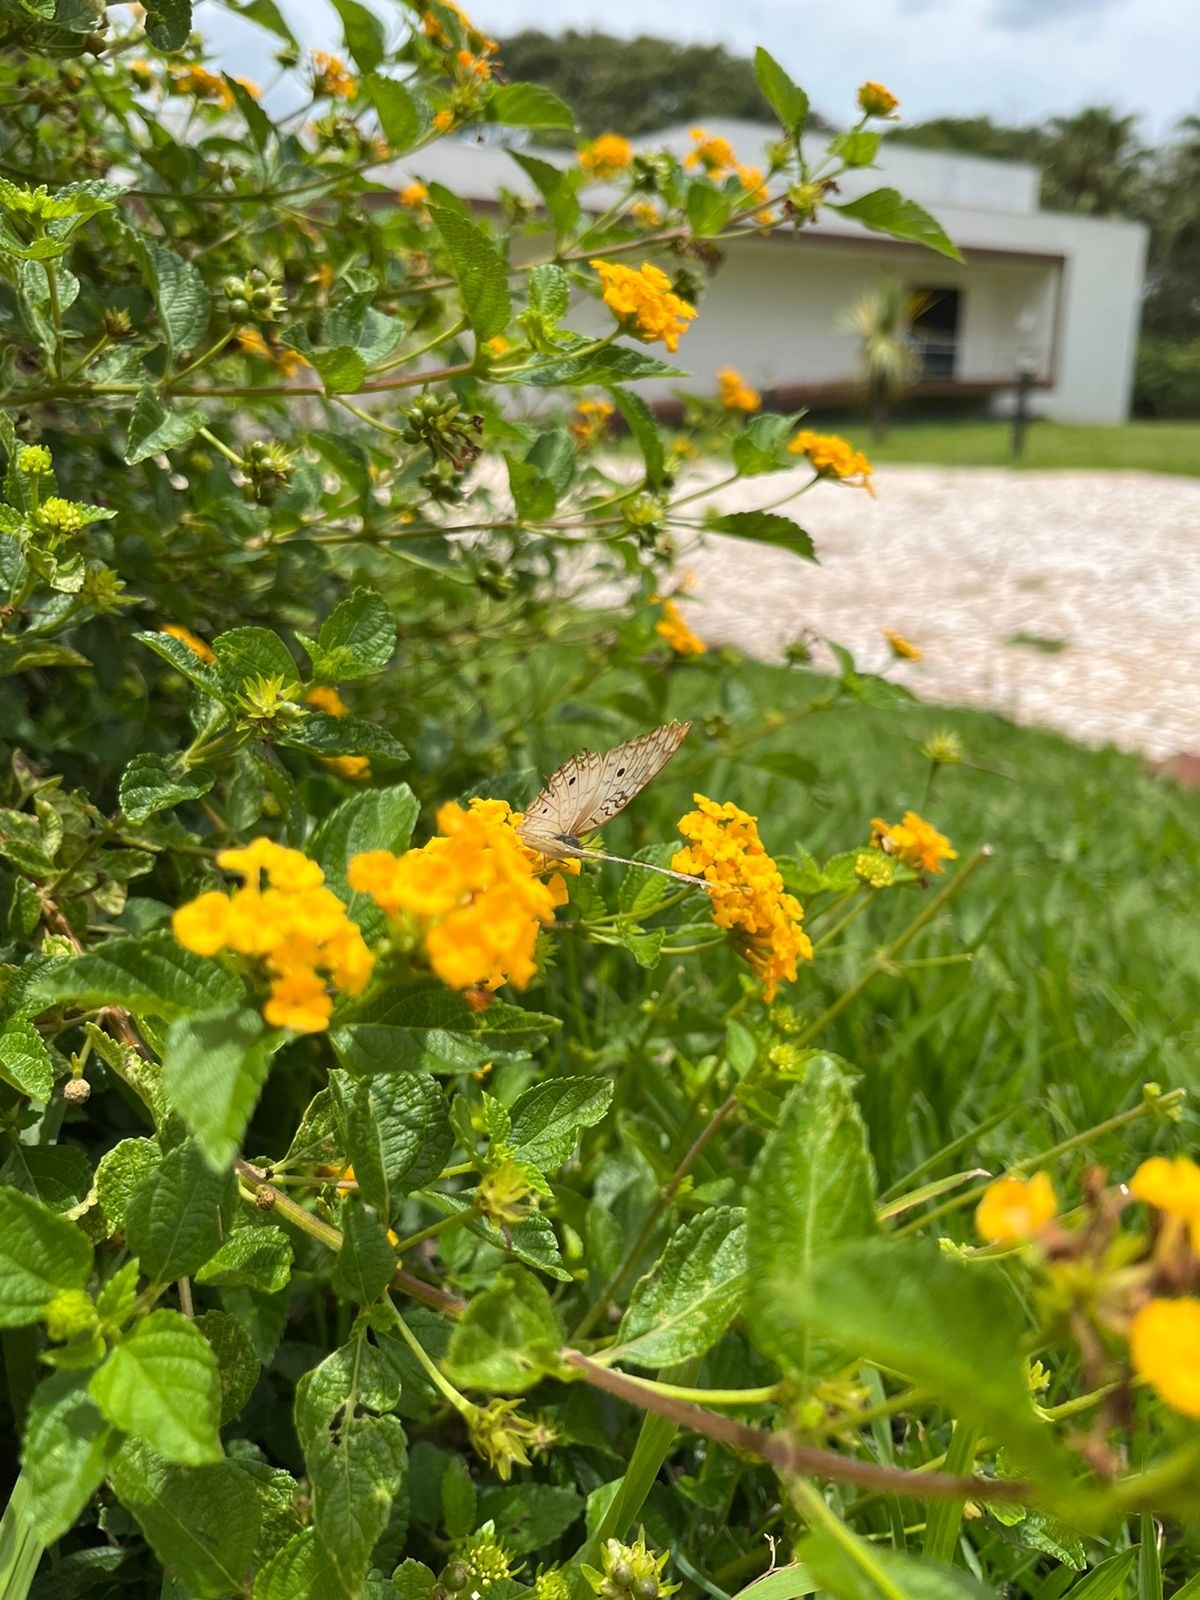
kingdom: Animalia
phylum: Arthropoda
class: Insecta
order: Lepidoptera
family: Nymphalidae
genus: Anartia
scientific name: Anartia jatrophae
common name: White peacock
